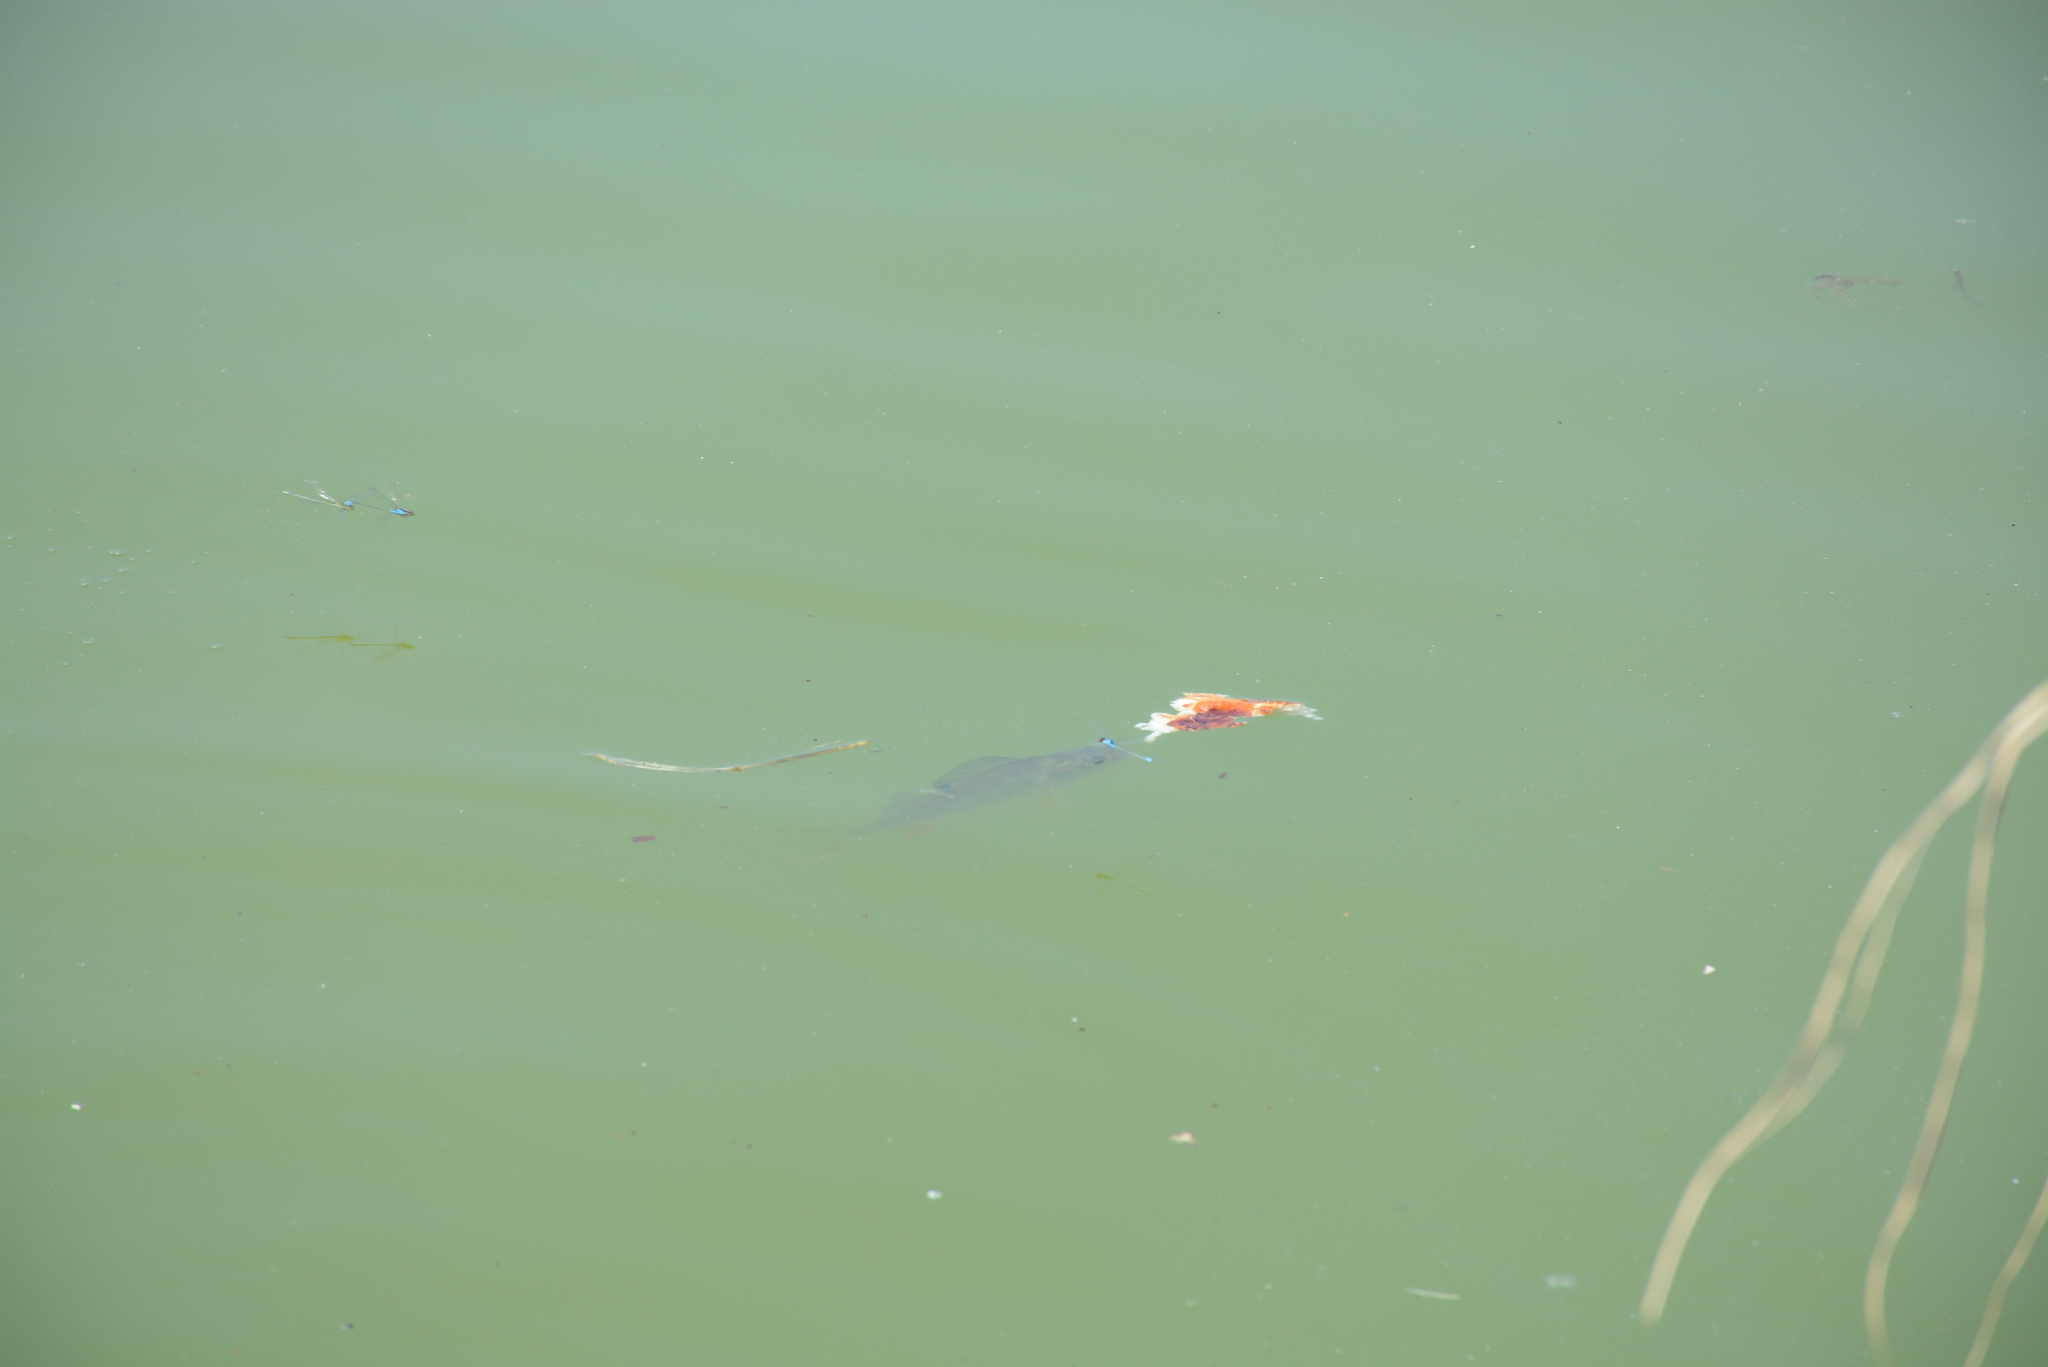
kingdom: Animalia
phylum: Chordata
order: Perciformes
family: Percidae
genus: Perca
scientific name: Perca fluviatilis
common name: Perch
